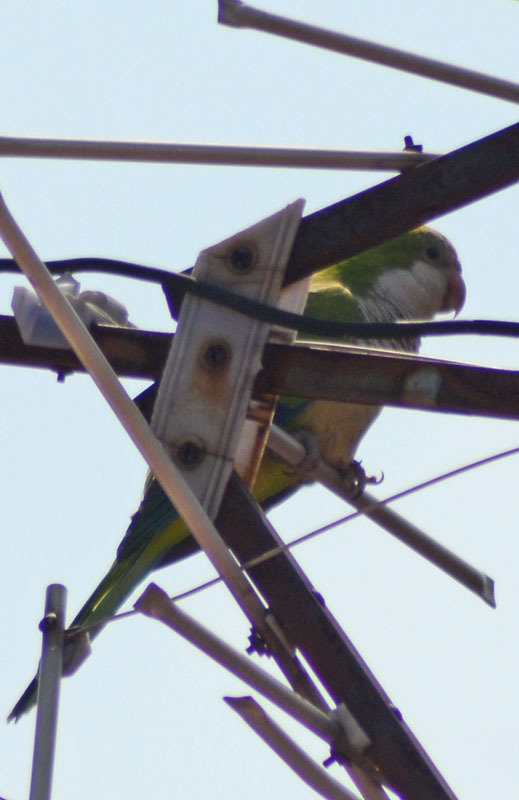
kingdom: Animalia
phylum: Chordata
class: Aves
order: Psittaciformes
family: Psittacidae
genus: Myiopsitta
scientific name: Myiopsitta monachus
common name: Monk parakeet
